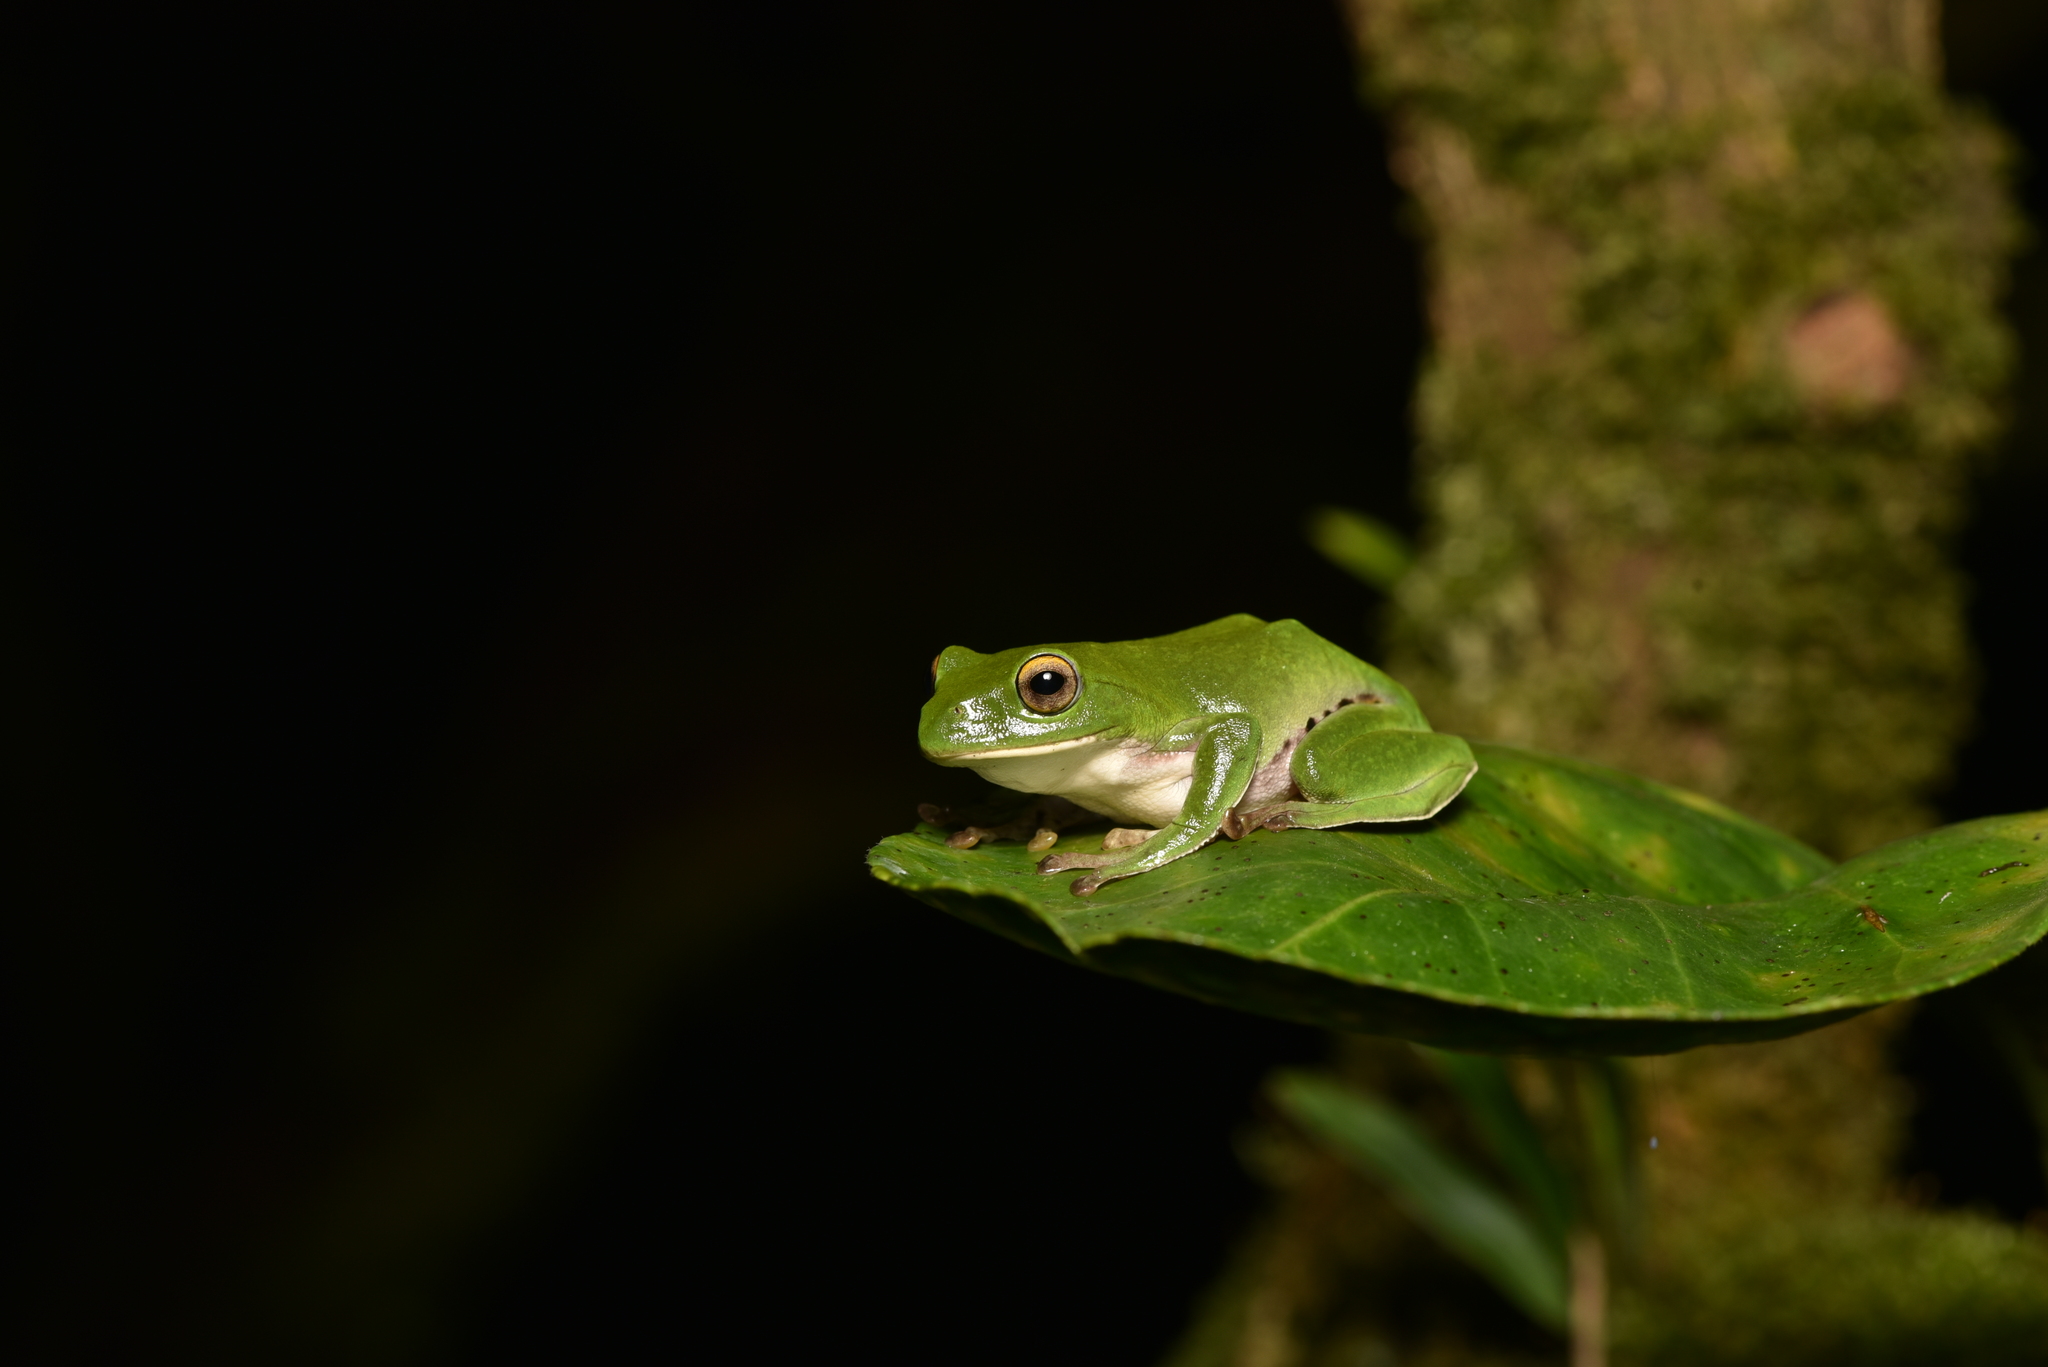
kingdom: Animalia
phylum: Chordata
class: Amphibia
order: Anura
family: Rhacophoridae
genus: Zhangixalus
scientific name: Zhangixalus moltrechti
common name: Moltrecht's treefrog
